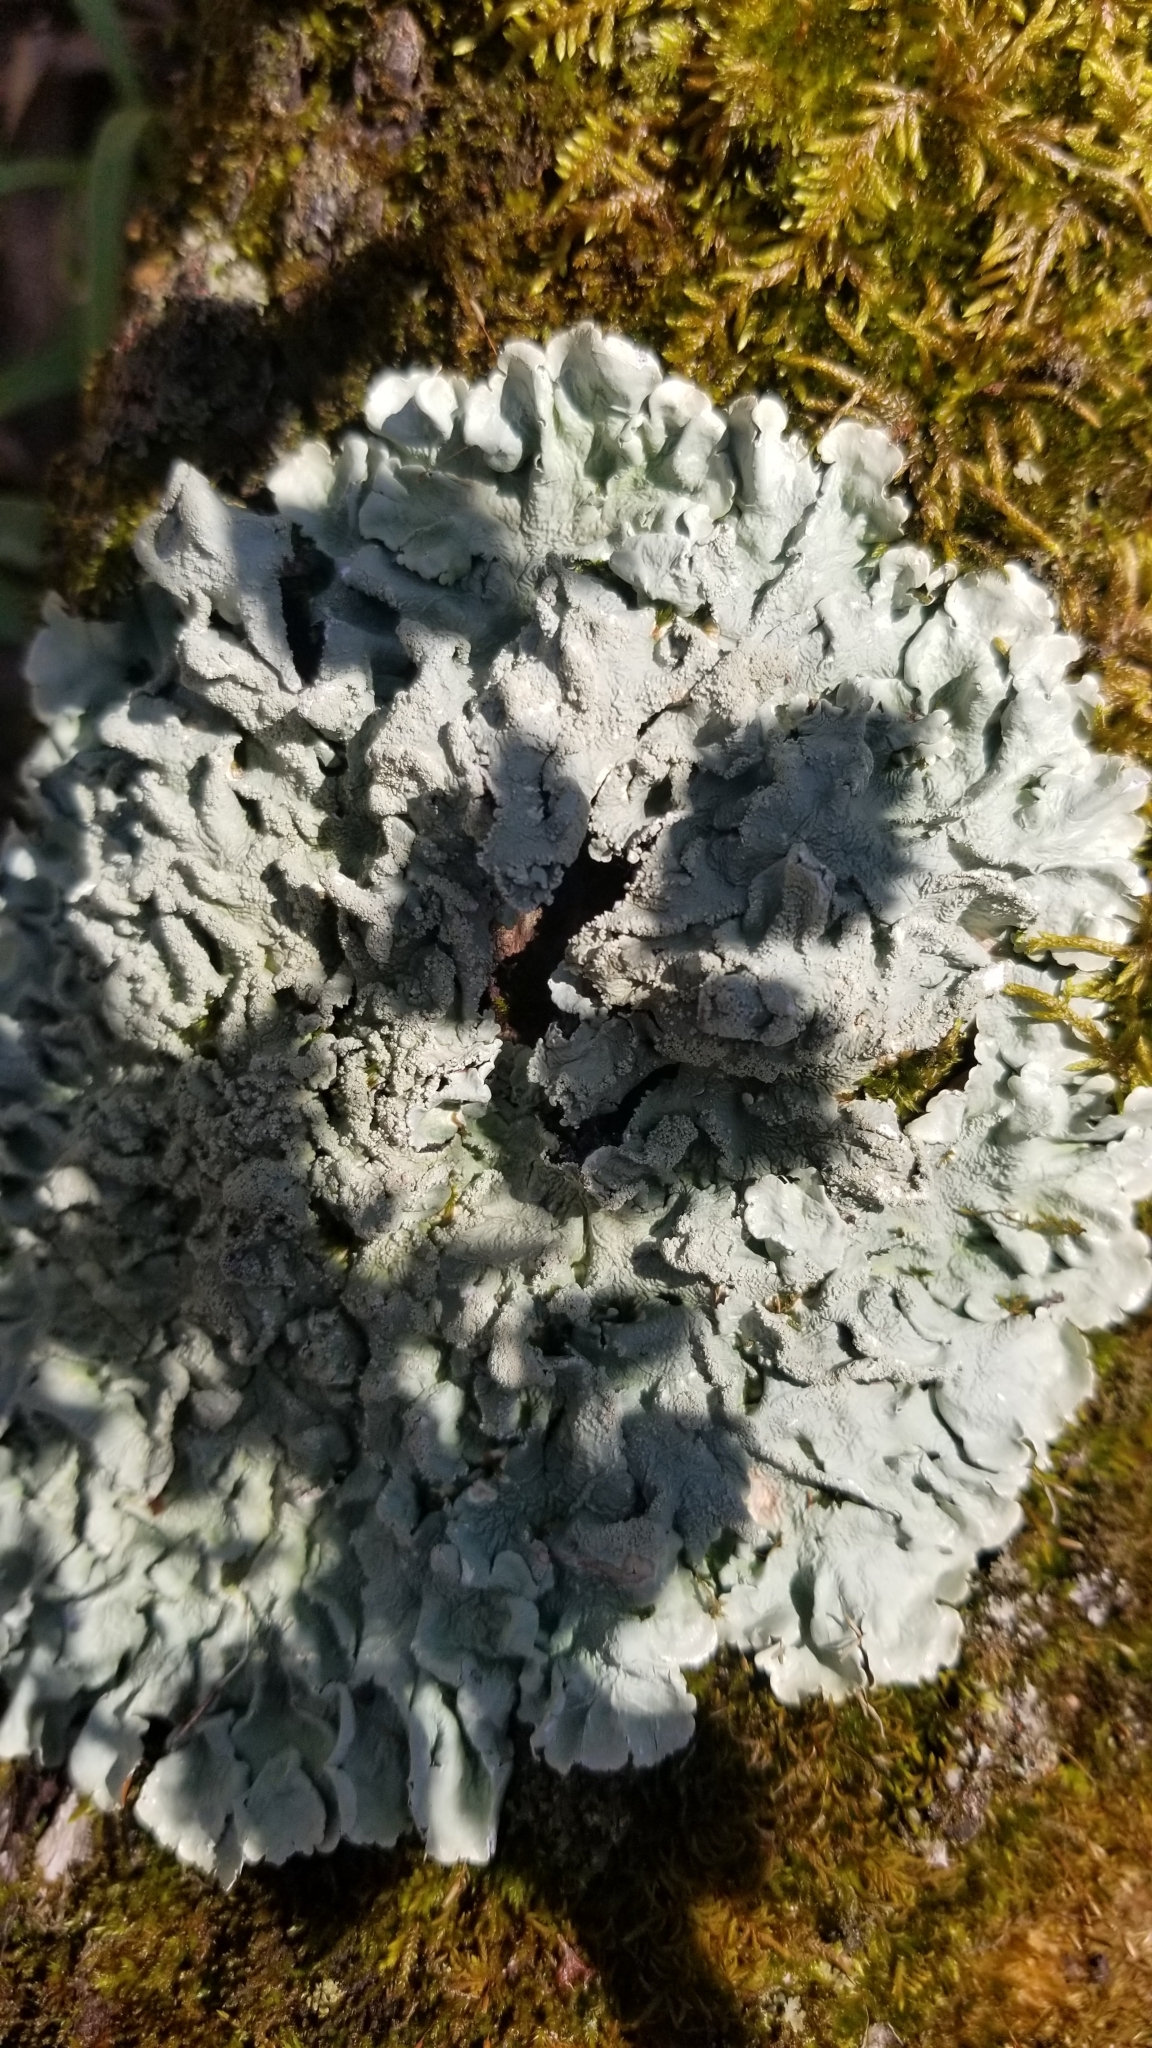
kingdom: Fungi
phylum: Ascomycota
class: Lecanoromycetes
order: Lecanorales
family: Parmeliaceae
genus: Flavoparmelia
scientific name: Flavoparmelia caperata
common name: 40-mile per hour lichen
